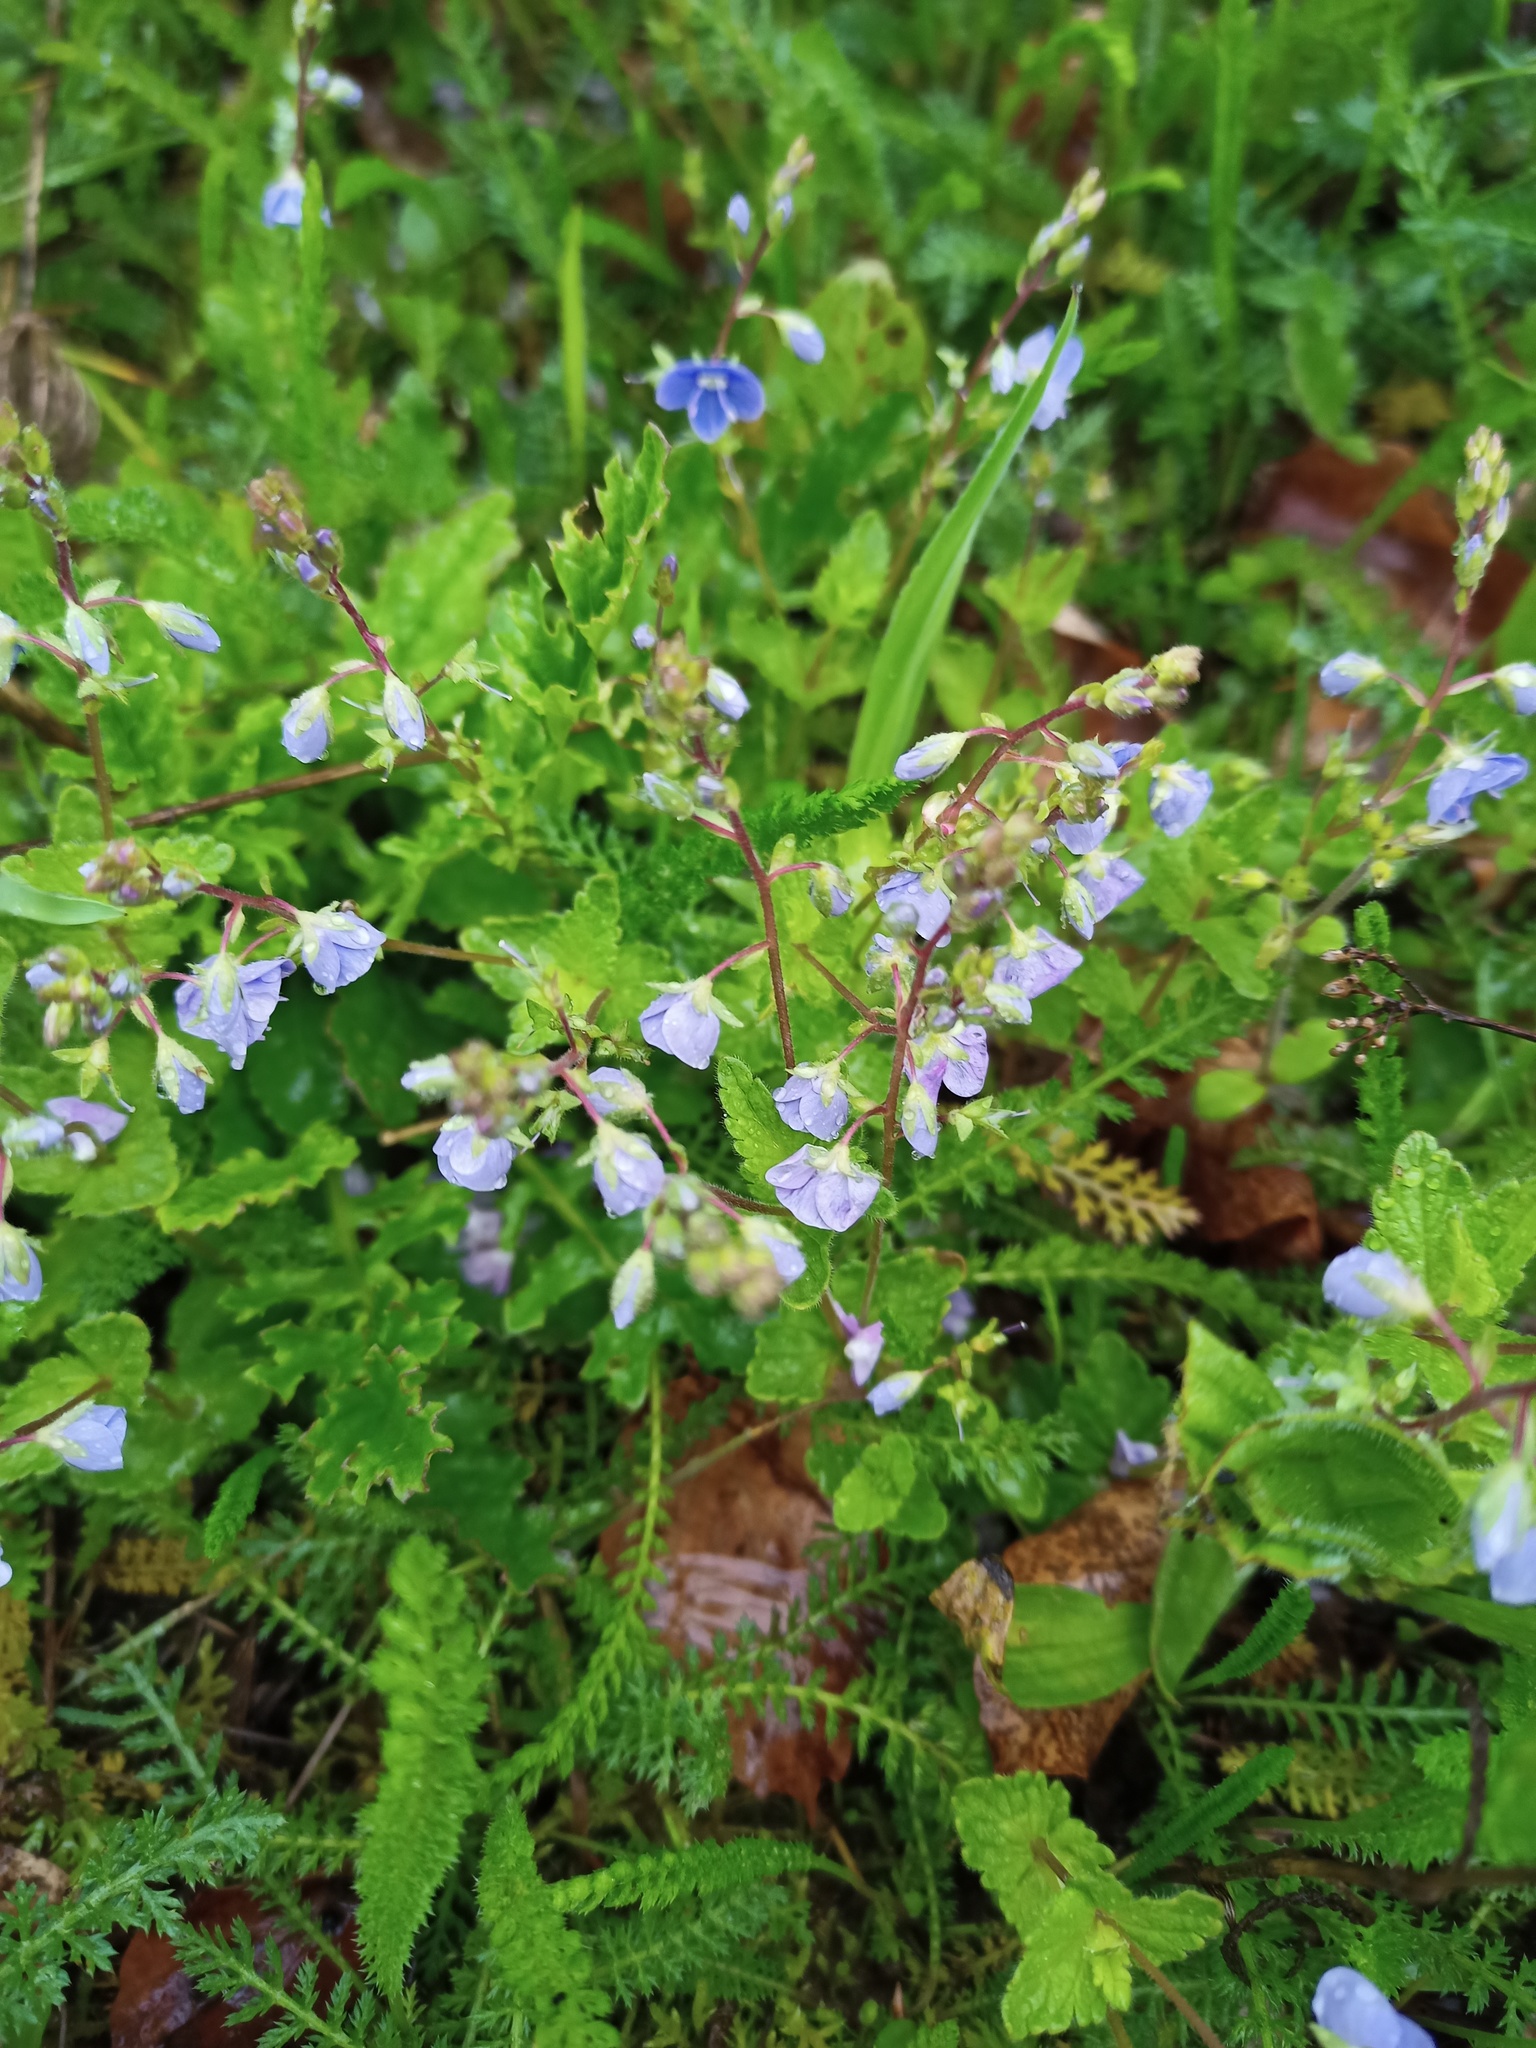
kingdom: Plantae
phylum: Tracheophyta
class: Magnoliopsida
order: Lamiales
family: Plantaginaceae
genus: Veronica
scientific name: Veronica chamaedrys
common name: Germander speedwell
